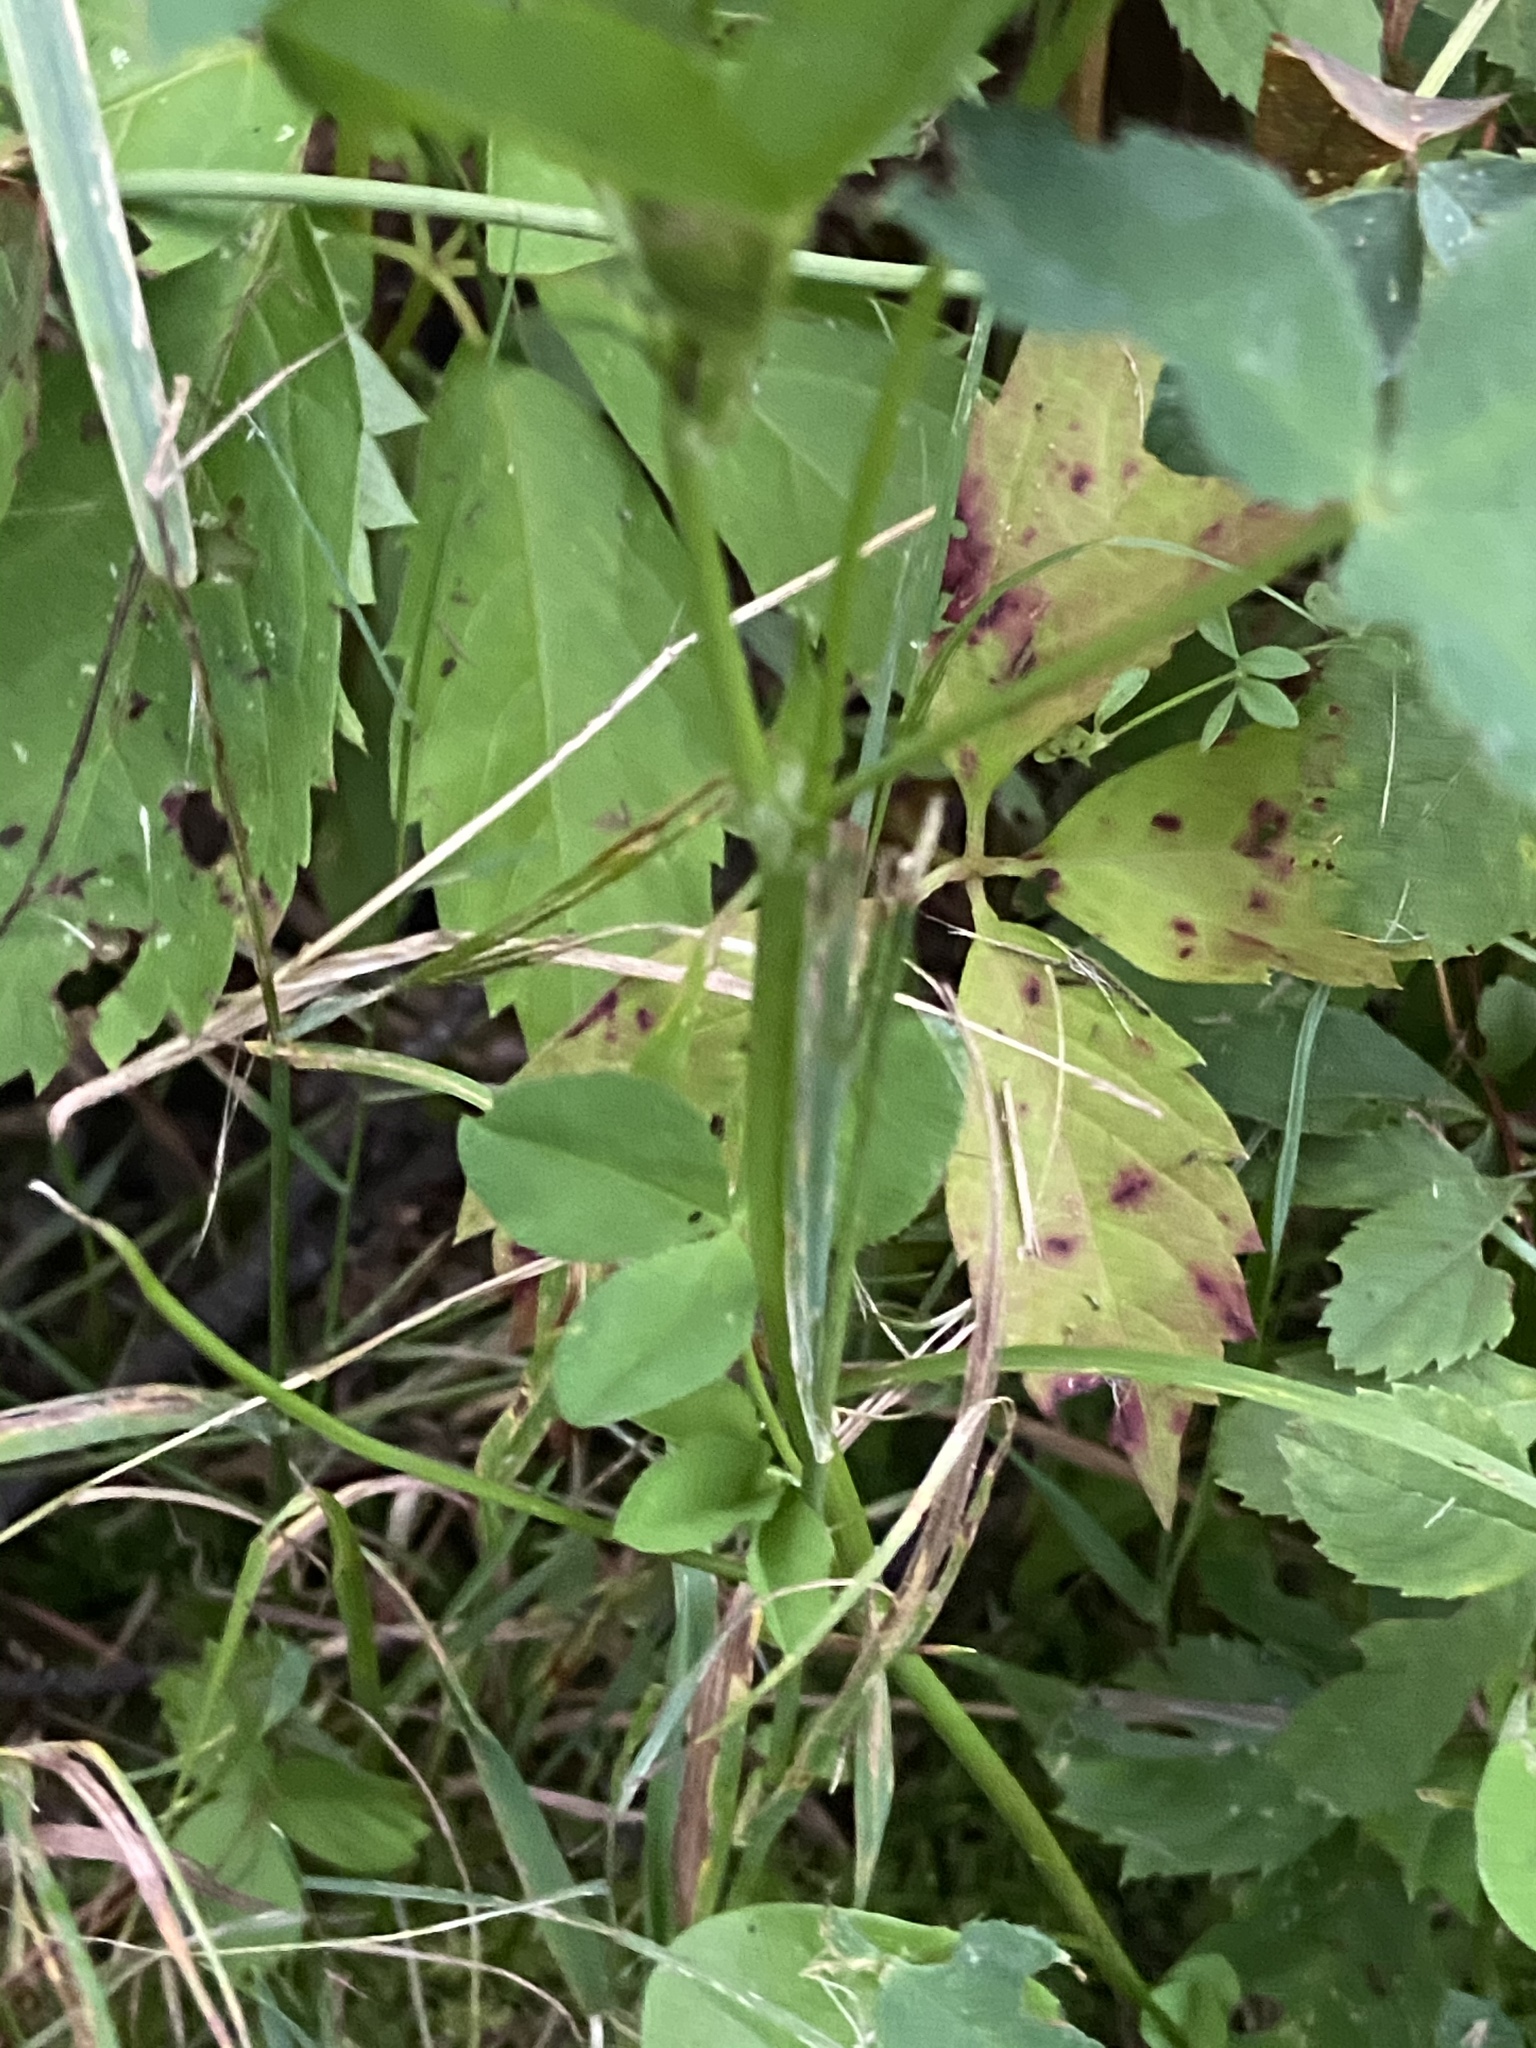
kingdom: Plantae
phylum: Tracheophyta
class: Magnoliopsida
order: Fabales
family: Fabaceae
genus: Trifolium
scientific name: Trifolium hybridum
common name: Alsike clover
